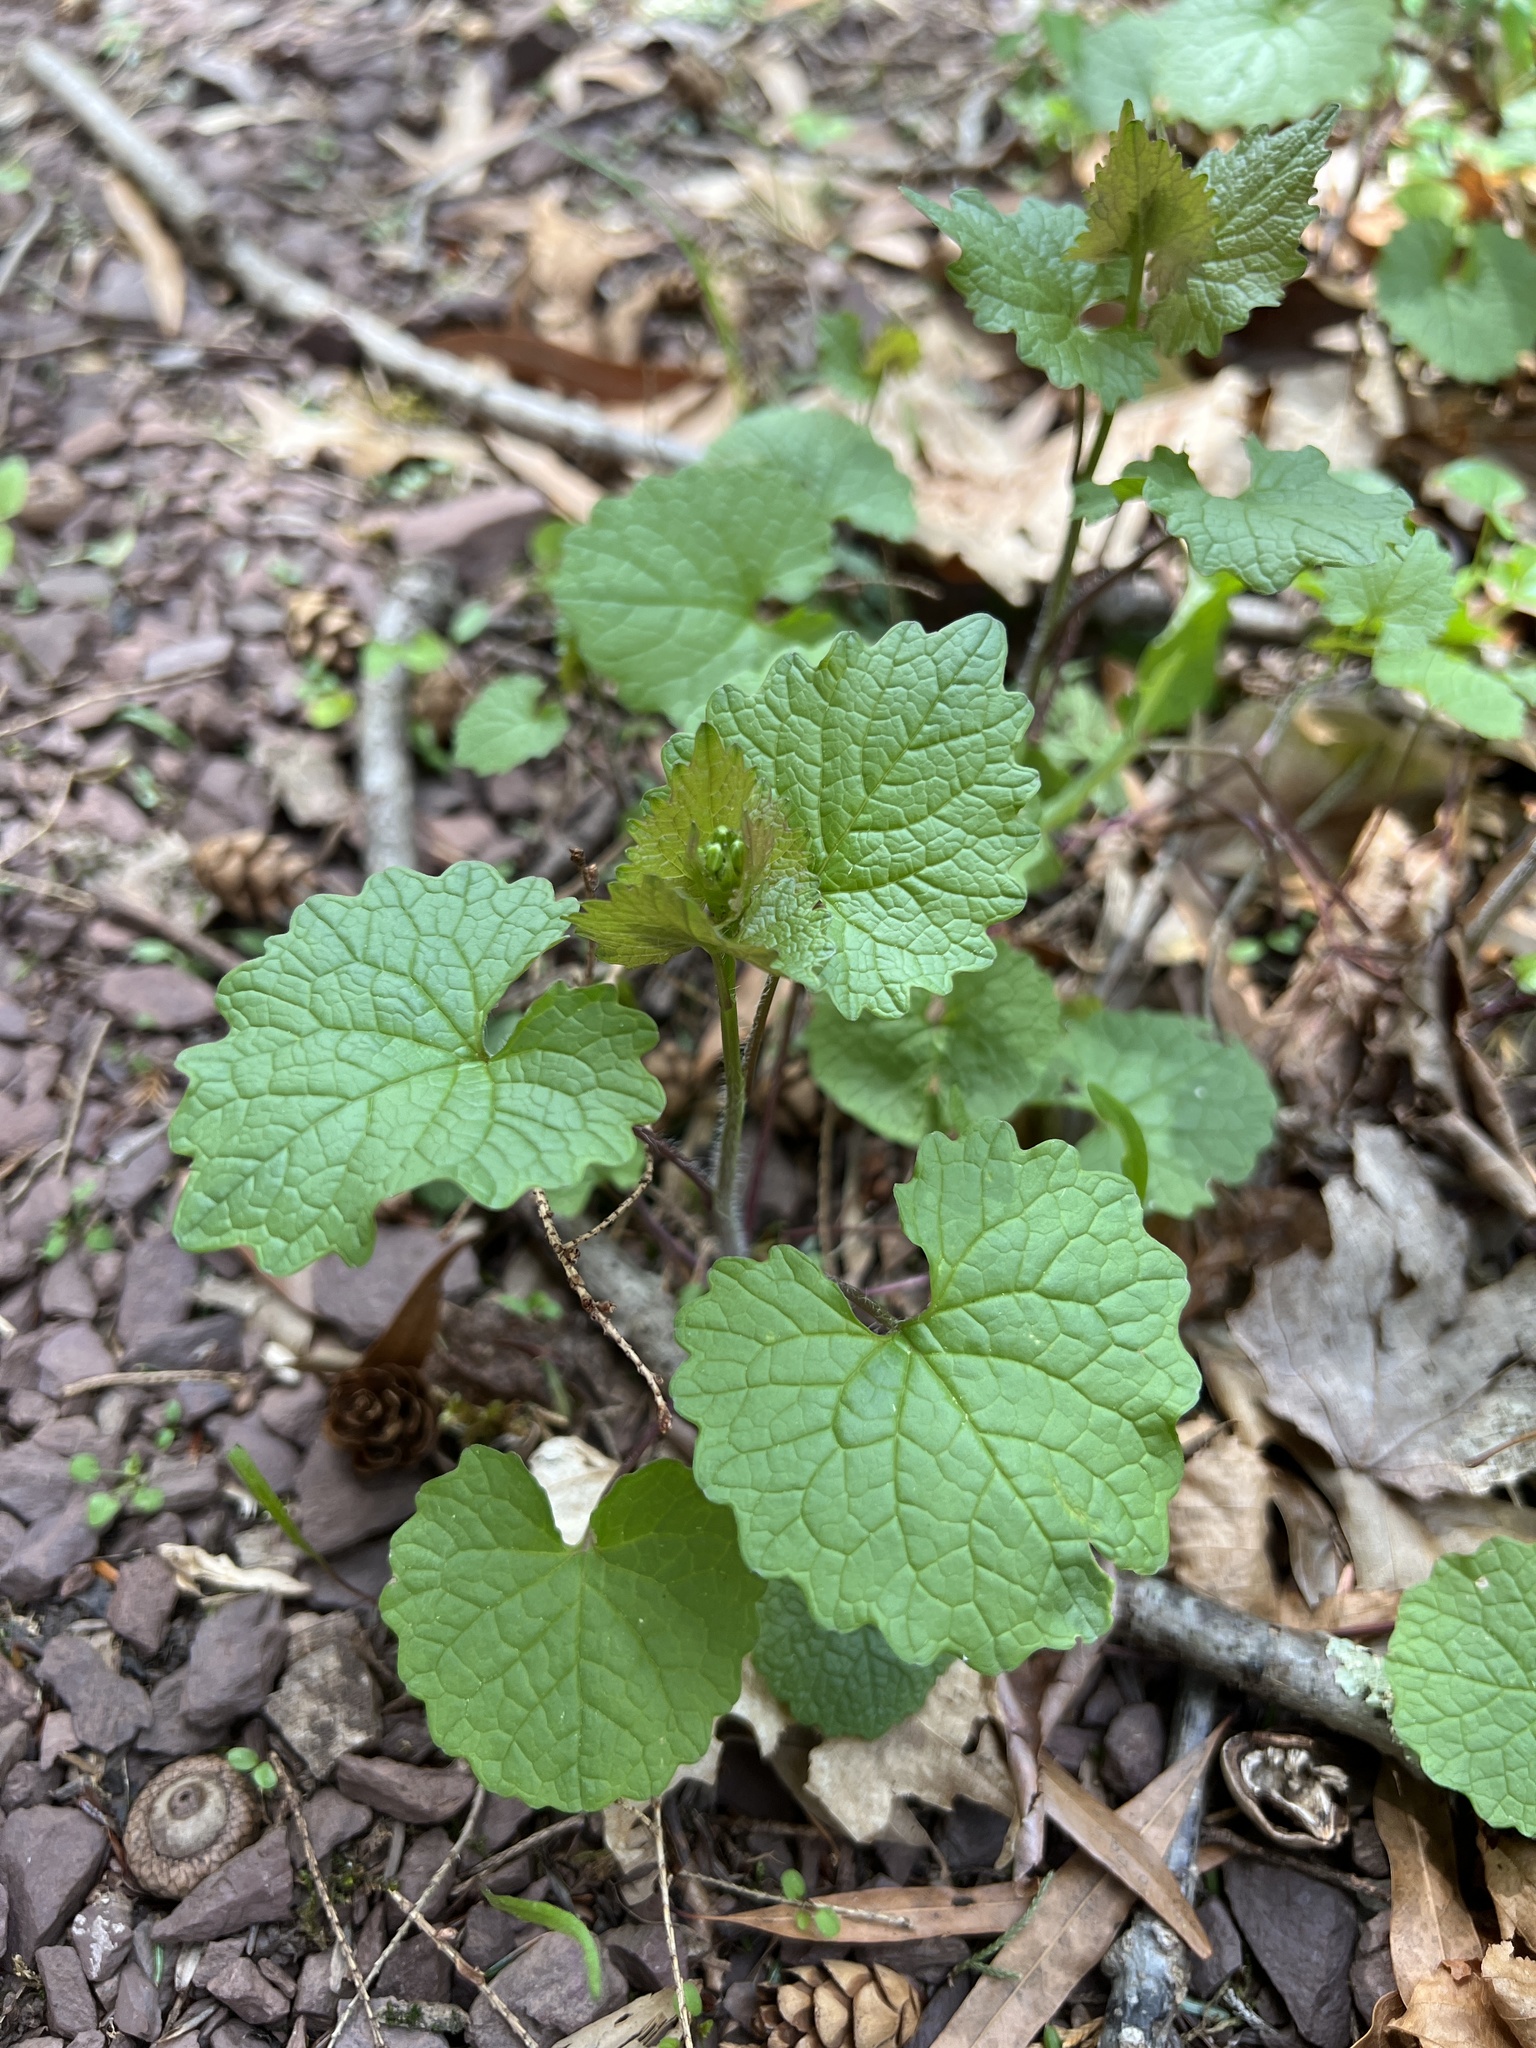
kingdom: Plantae
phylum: Tracheophyta
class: Magnoliopsida
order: Brassicales
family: Brassicaceae
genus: Alliaria
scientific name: Alliaria petiolata
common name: Garlic mustard
